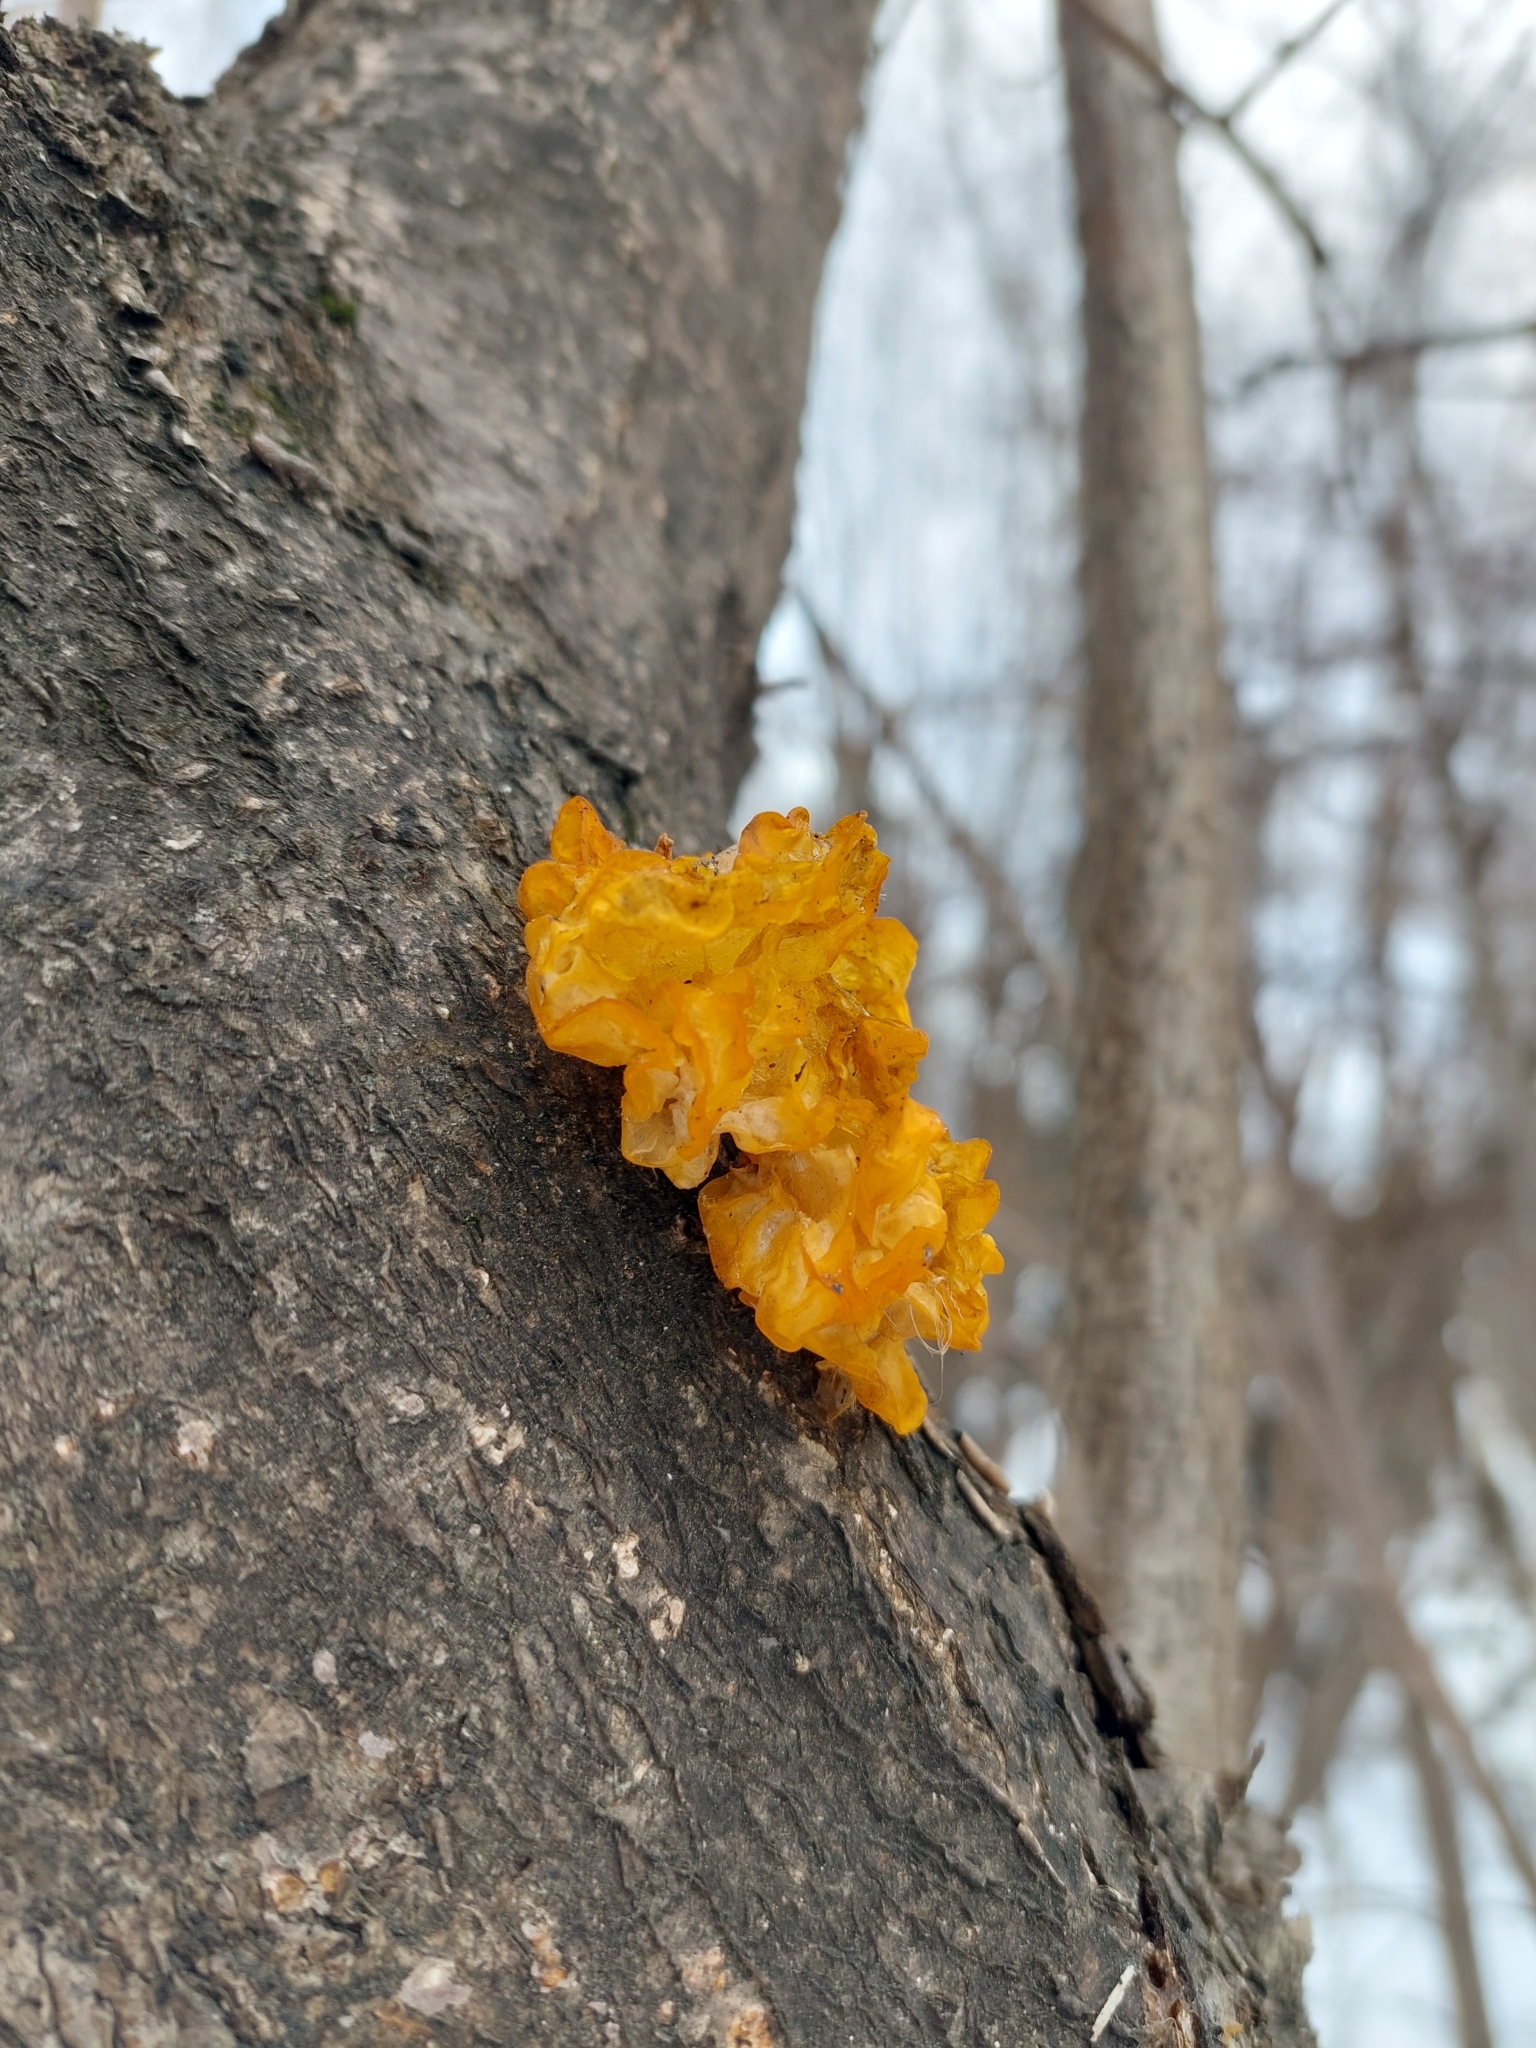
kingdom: Fungi
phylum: Basidiomycota
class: Tremellomycetes
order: Tremellales
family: Tremellaceae
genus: Tremella
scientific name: Tremella mesenterica
